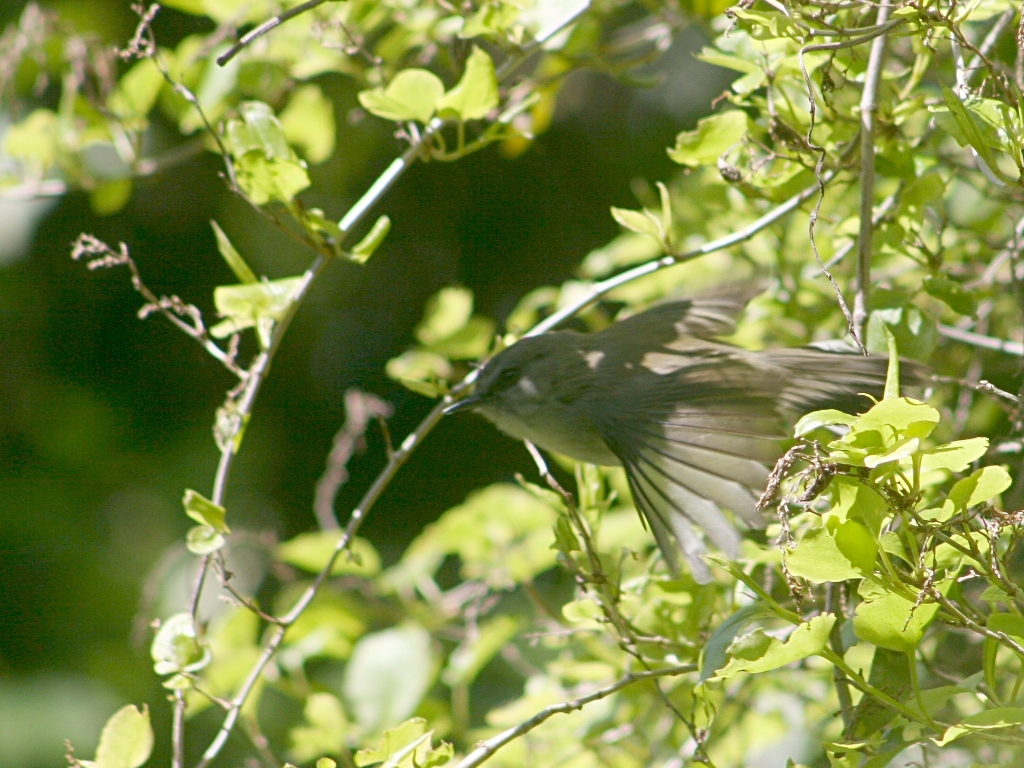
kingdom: Animalia
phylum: Chordata
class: Aves
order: Passeriformes
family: Acanthizidae
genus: Gerygone
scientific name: Gerygone igata
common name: Grey gerygone
